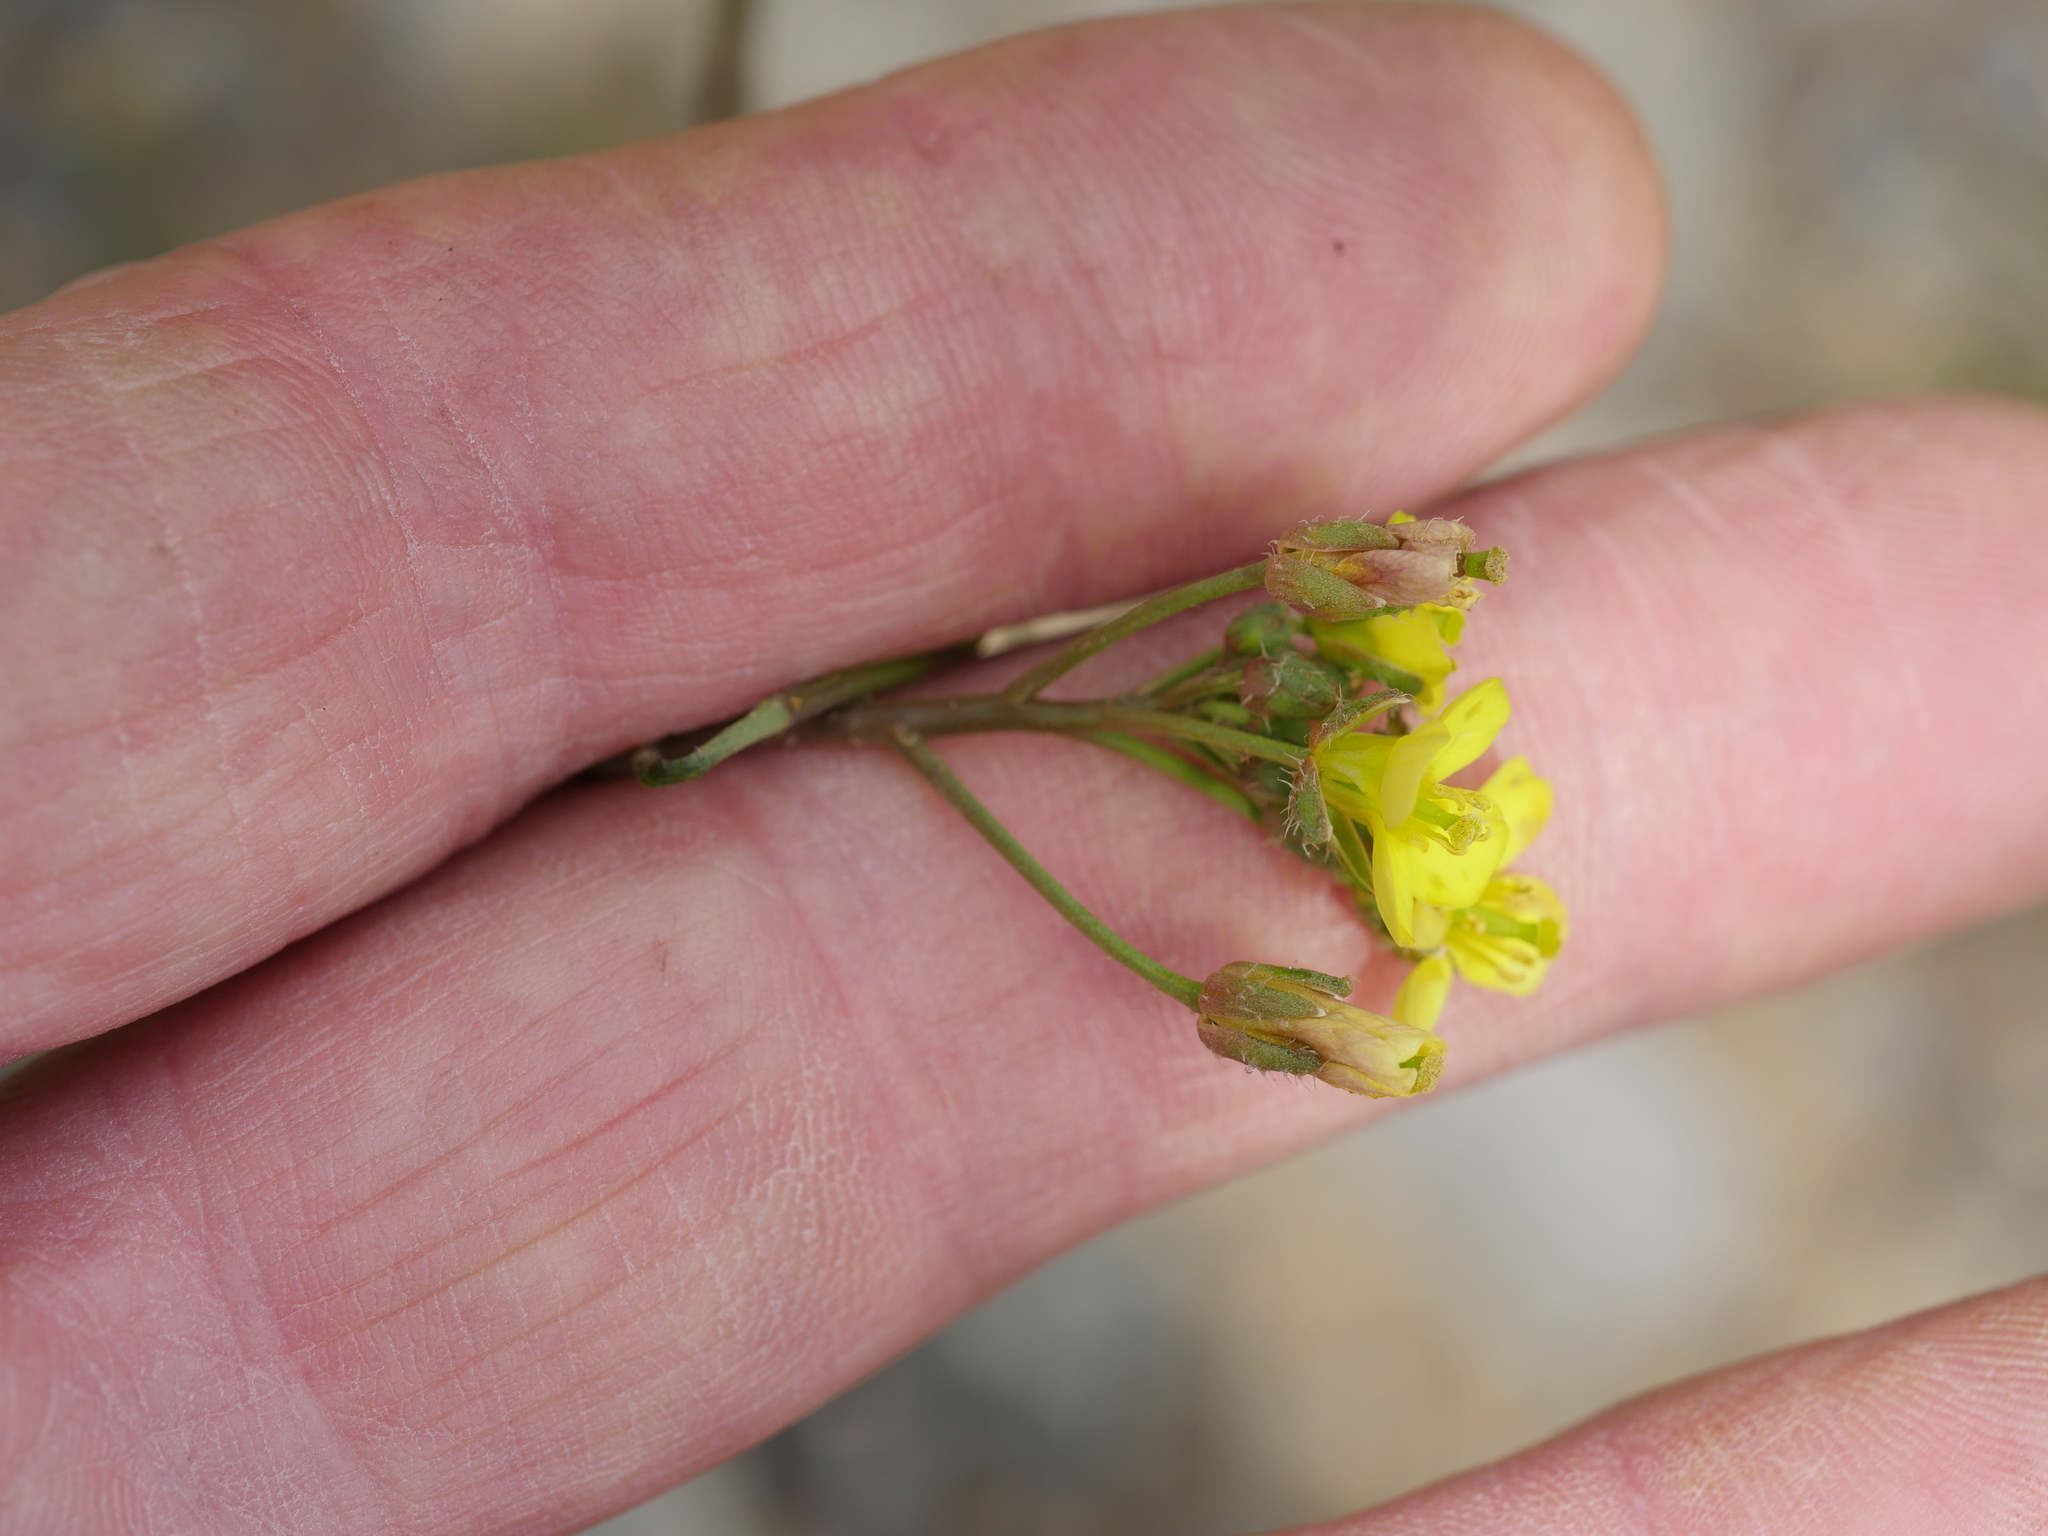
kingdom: Plantae
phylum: Tracheophyta
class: Magnoliopsida
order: Brassicales
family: Brassicaceae
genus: Diplotaxis
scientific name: Diplotaxis muralis
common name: Annual wall-rocket
